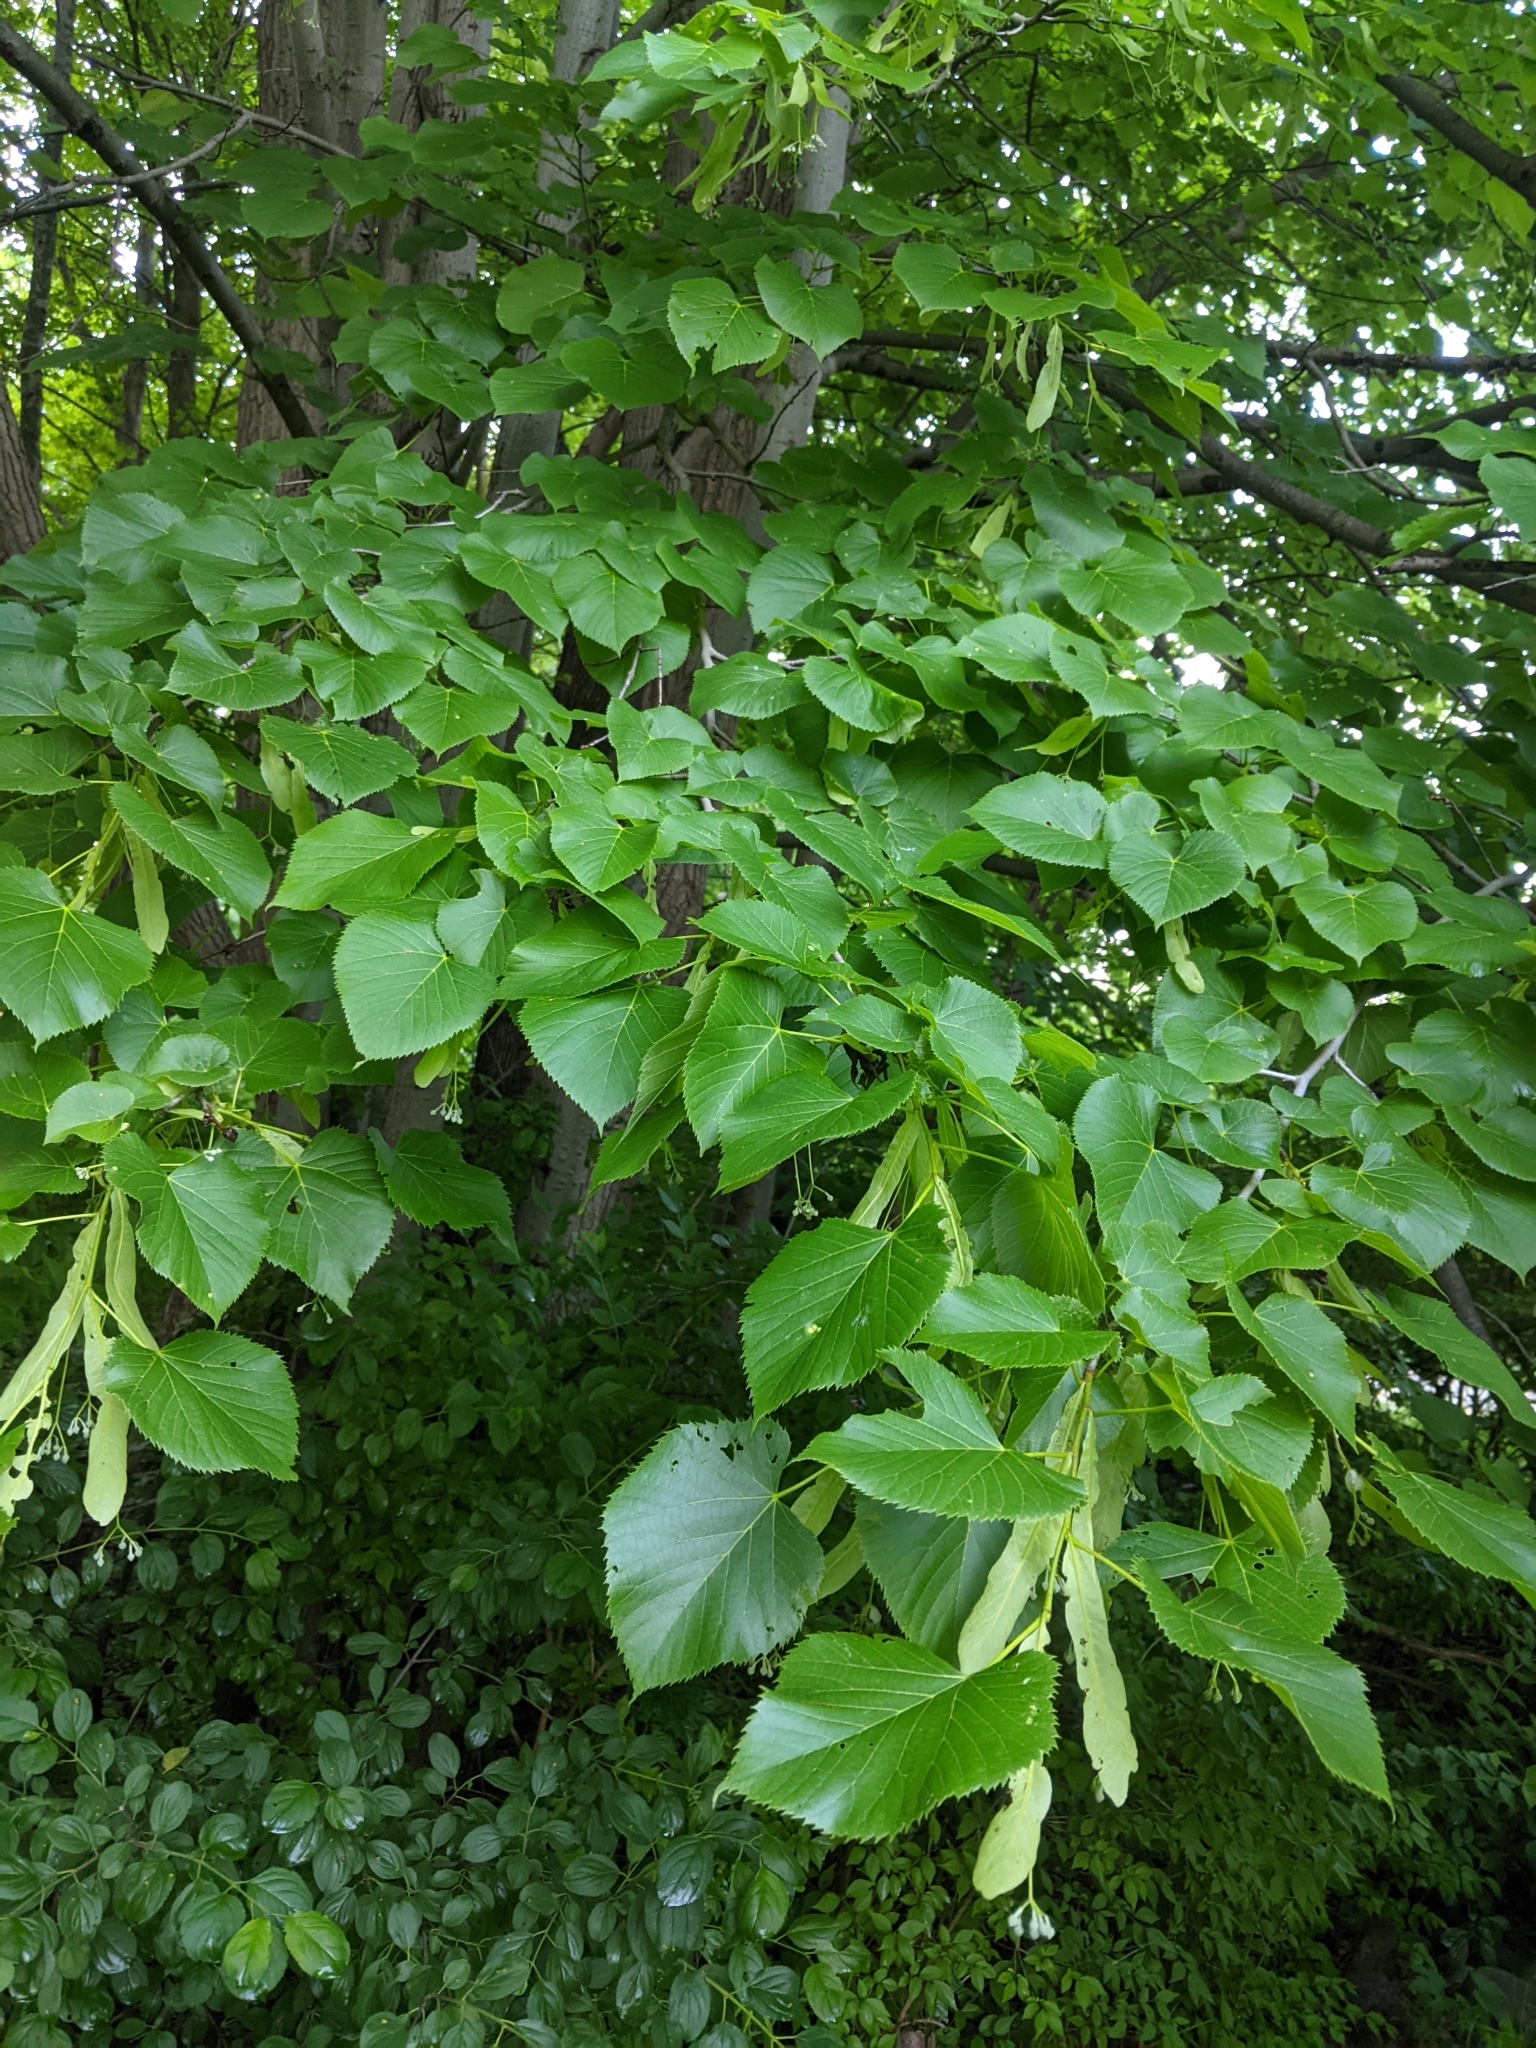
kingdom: Plantae
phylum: Tracheophyta
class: Magnoliopsida
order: Malvales
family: Malvaceae
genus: Tilia
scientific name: Tilia americana
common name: Basswood
